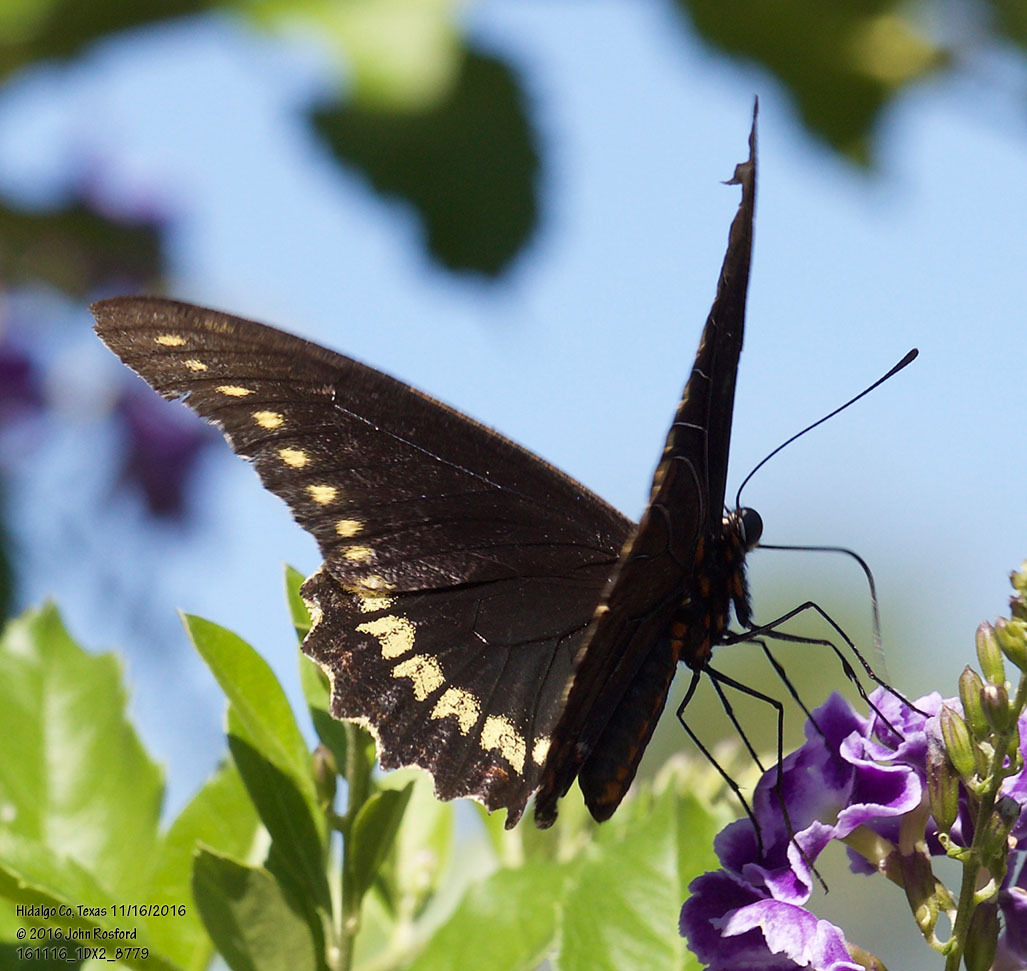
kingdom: Animalia
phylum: Arthropoda
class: Insecta
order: Lepidoptera
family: Papilionidae
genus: Battus
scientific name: Battus polydamas
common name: Polydamas swallowtail
